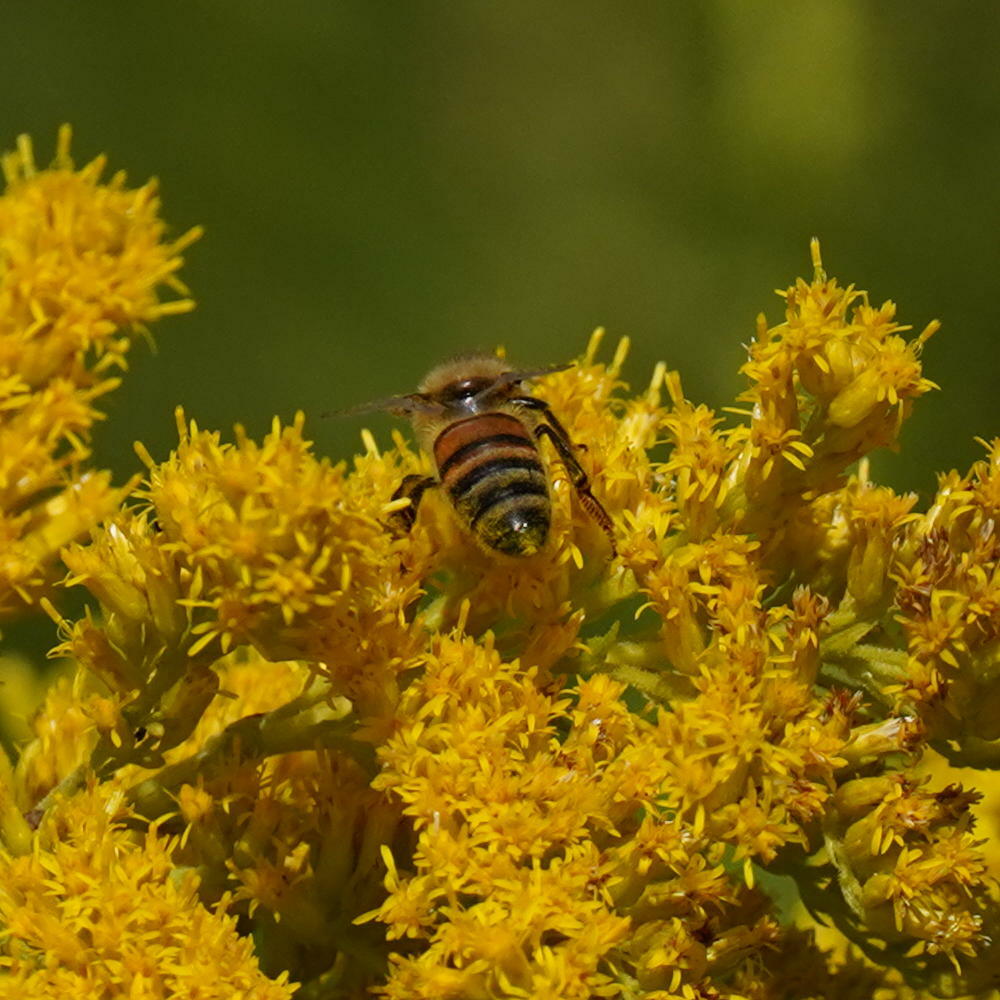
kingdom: Animalia
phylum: Arthropoda
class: Insecta
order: Hymenoptera
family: Apidae
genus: Apis
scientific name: Apis mellifera
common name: Honey bee
